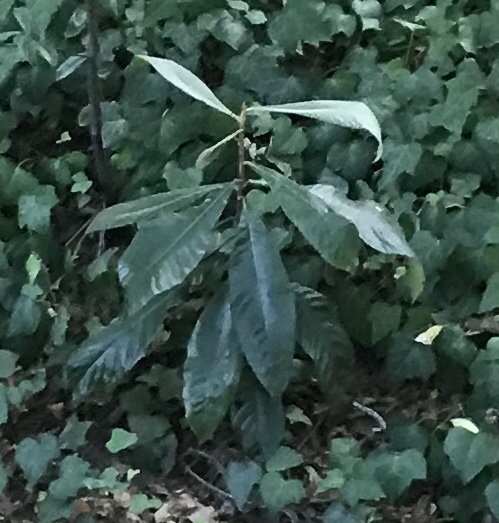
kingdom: Plantae
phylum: Tracheophyta
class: Magnoliopsida
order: Rosales
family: Rosaceae
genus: Rhaphiolepis
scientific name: Rhaphiolepis bibas
